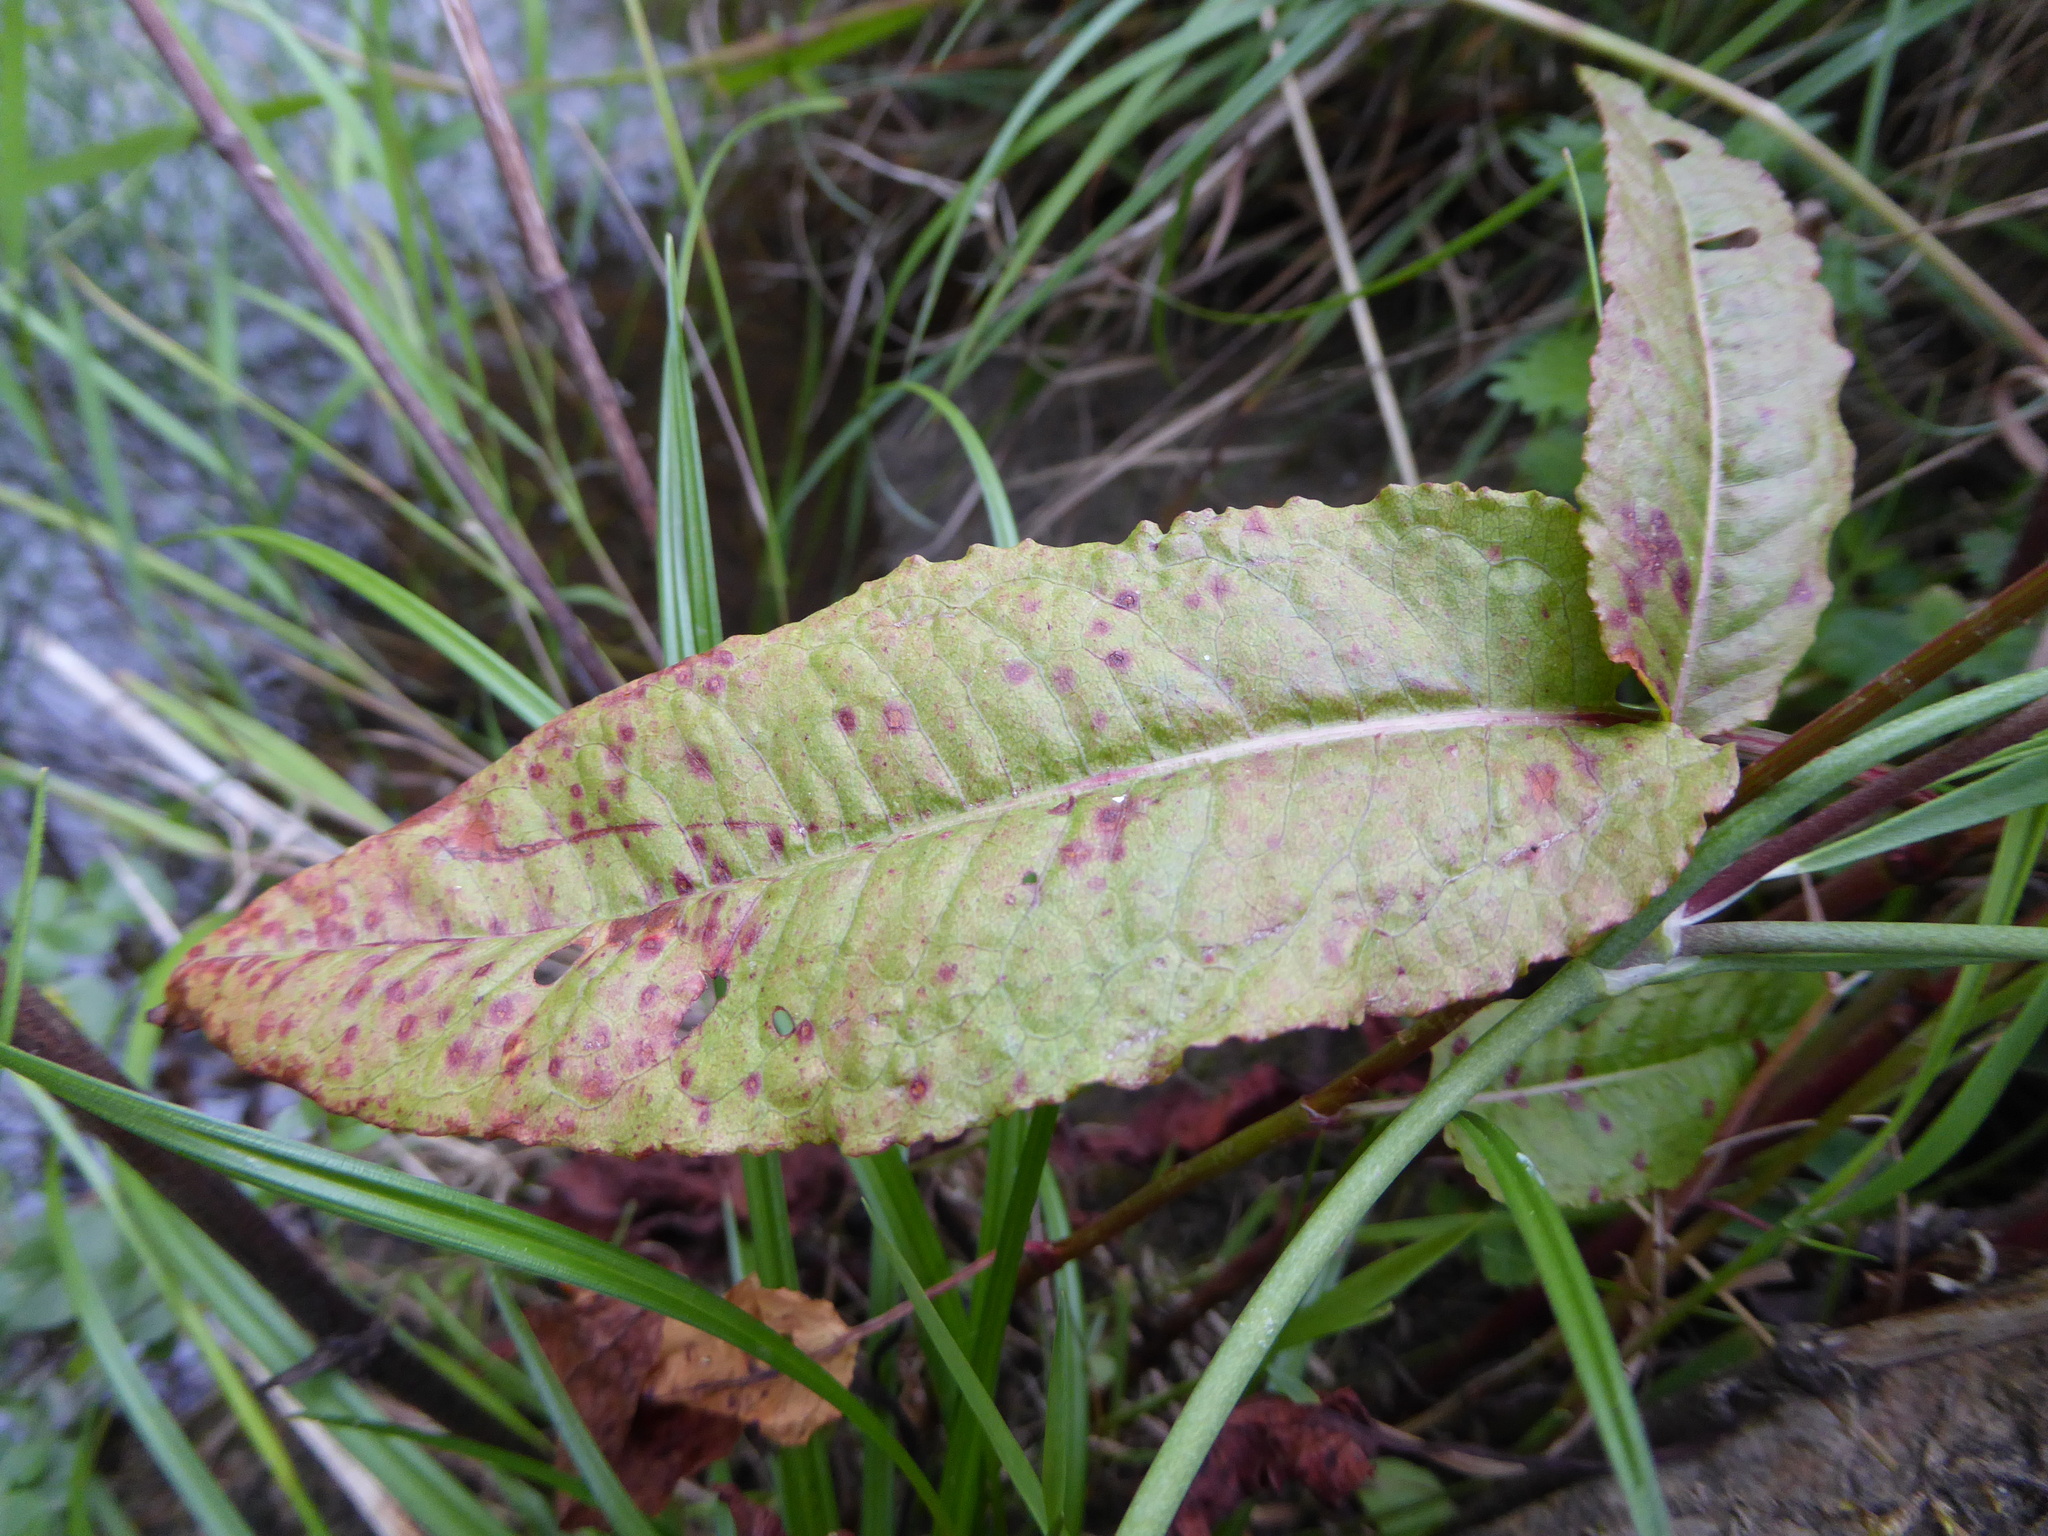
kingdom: Plantae
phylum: Tracheophyta
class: Magnoliopsida
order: Caryophyllales
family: Polygonaceae
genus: Rumex
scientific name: Rumex sanguineus
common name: Wood dock
